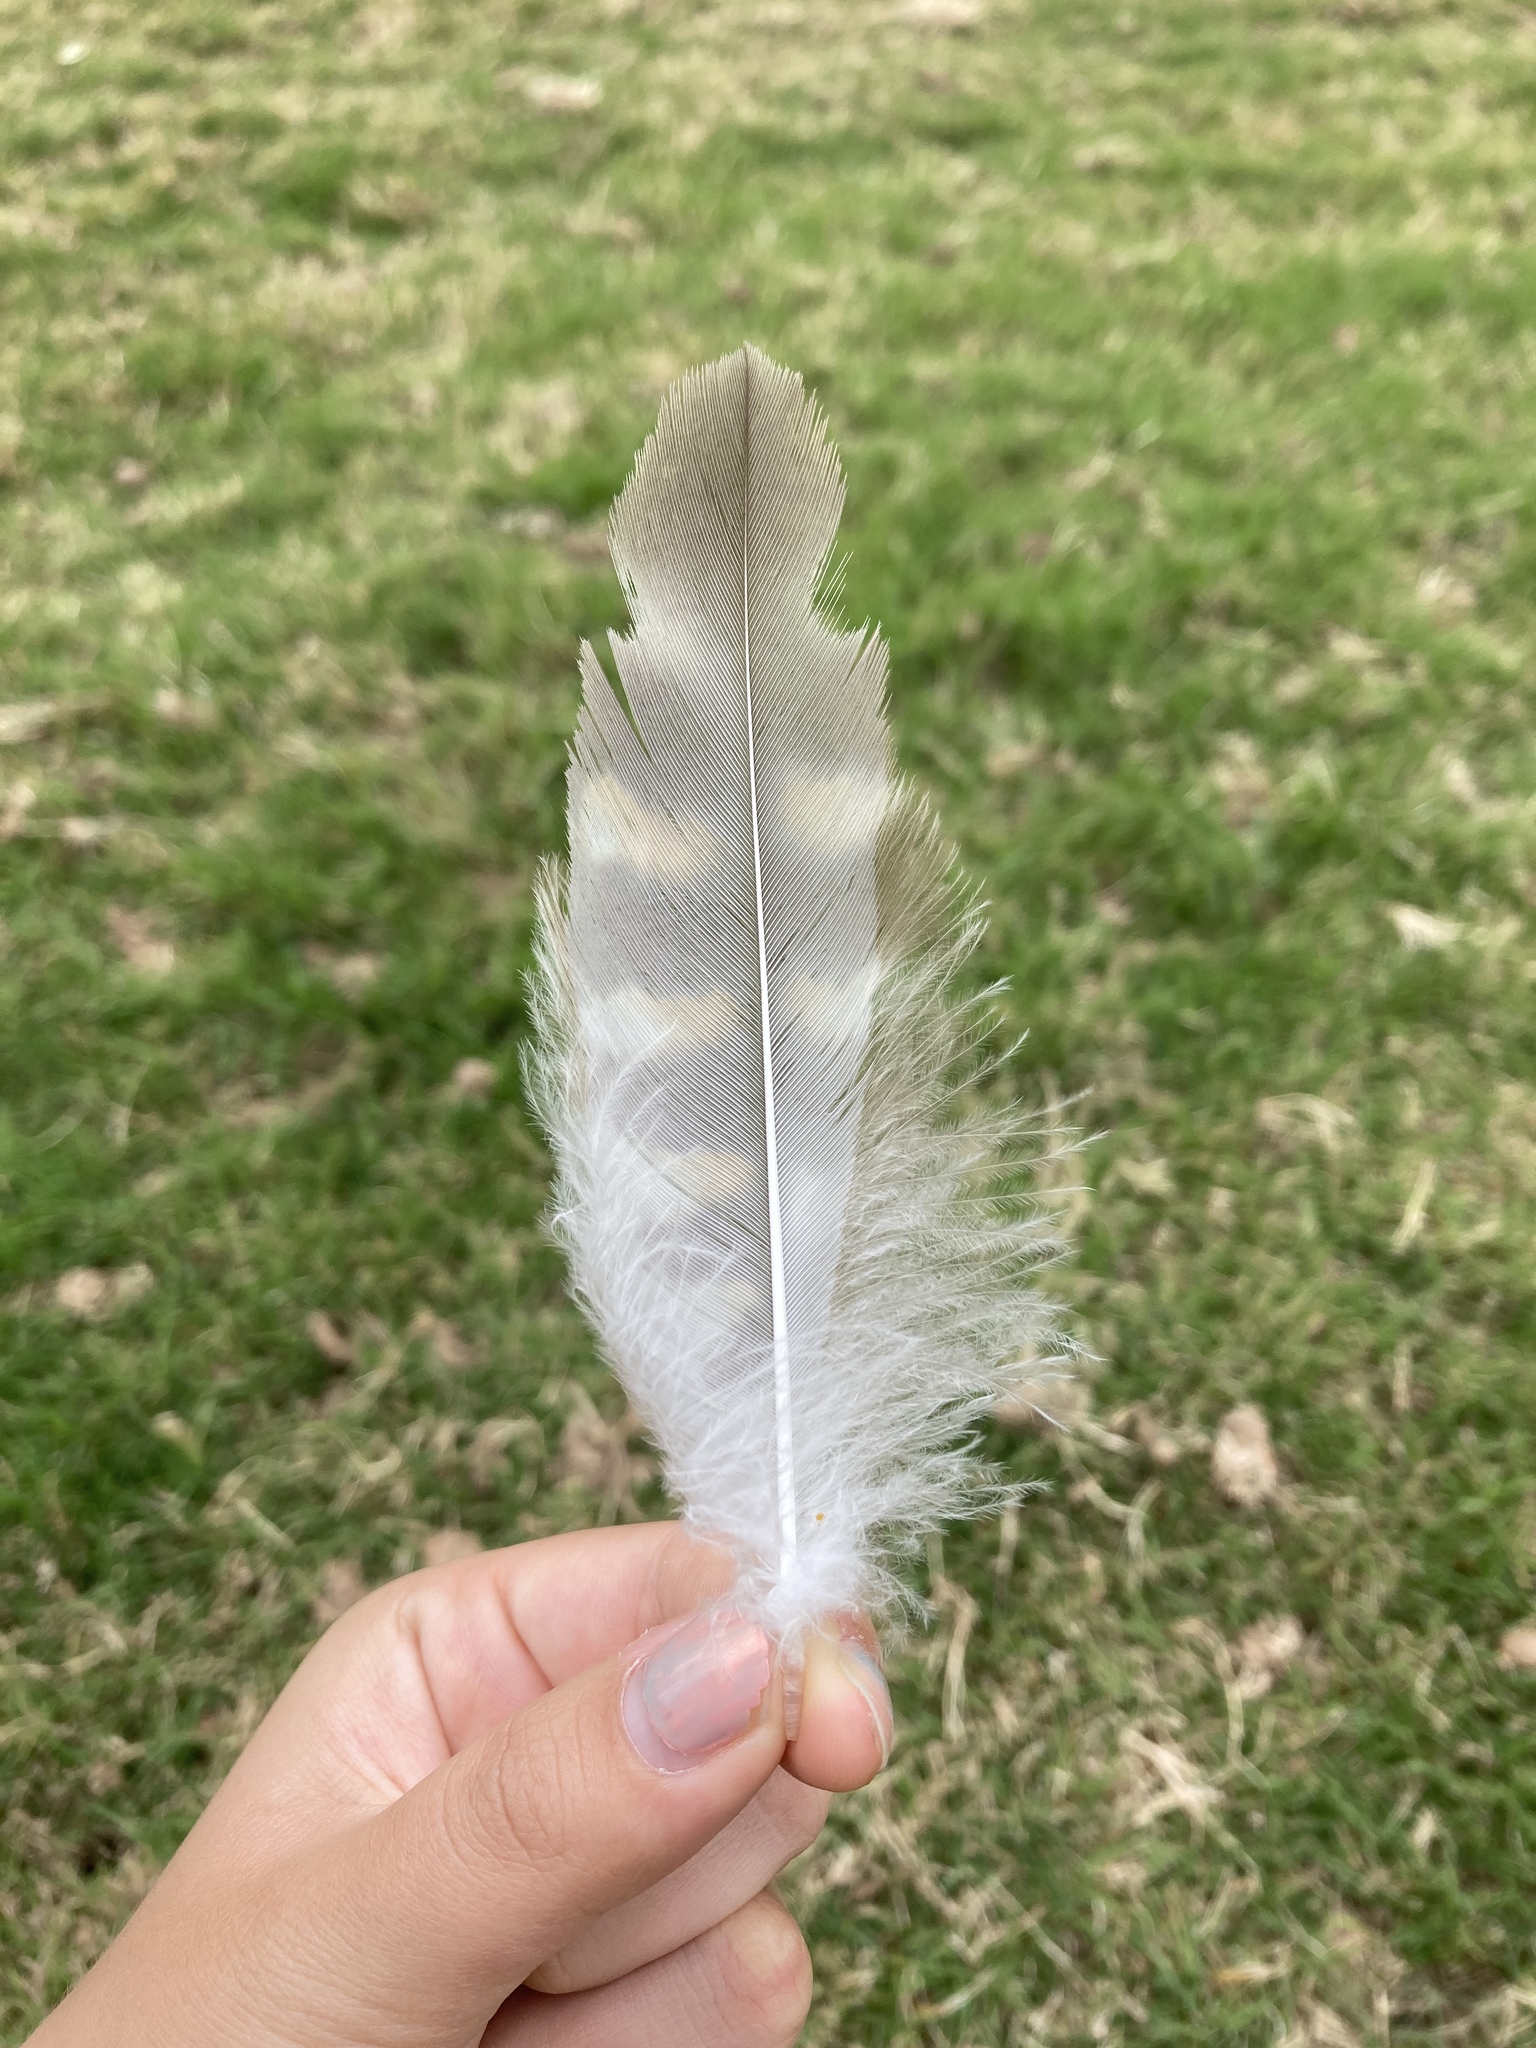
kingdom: Animalia
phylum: Chordata
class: Aves
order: Accipitriformes
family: Accipitridae
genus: Buteo
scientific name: Buteo lineatus
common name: Red-shouldered hawk
